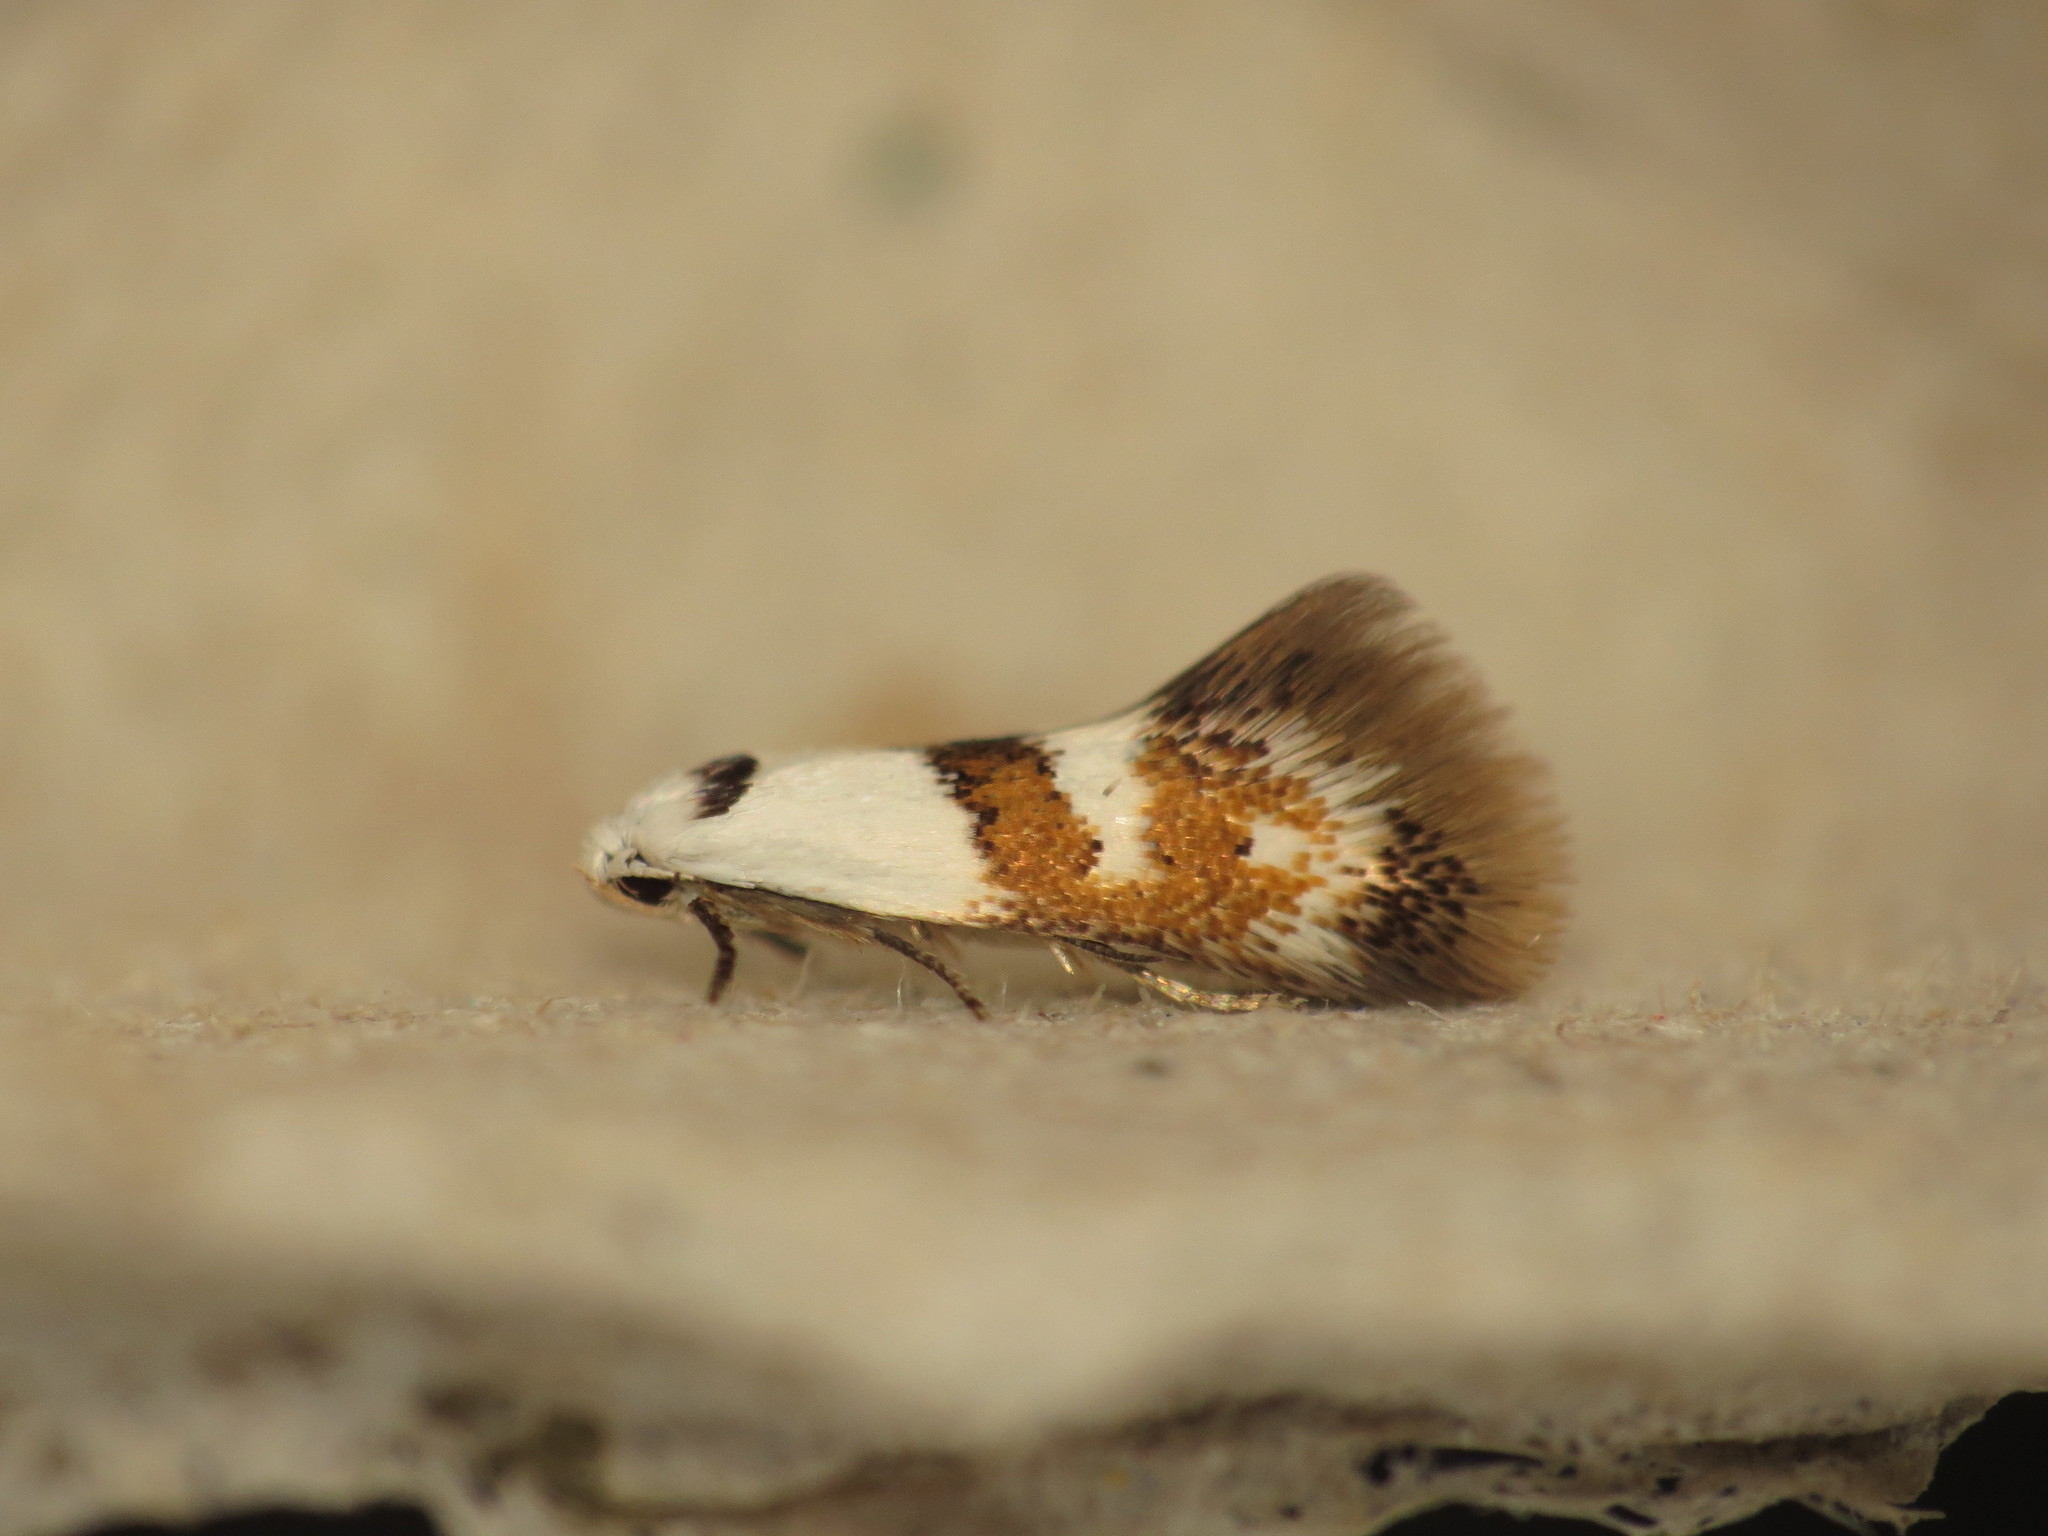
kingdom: Animalia
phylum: Arthropoda
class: Insecta
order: Lepidoptera
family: Oecophoridae
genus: Notodryas
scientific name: Notodryas vallata
